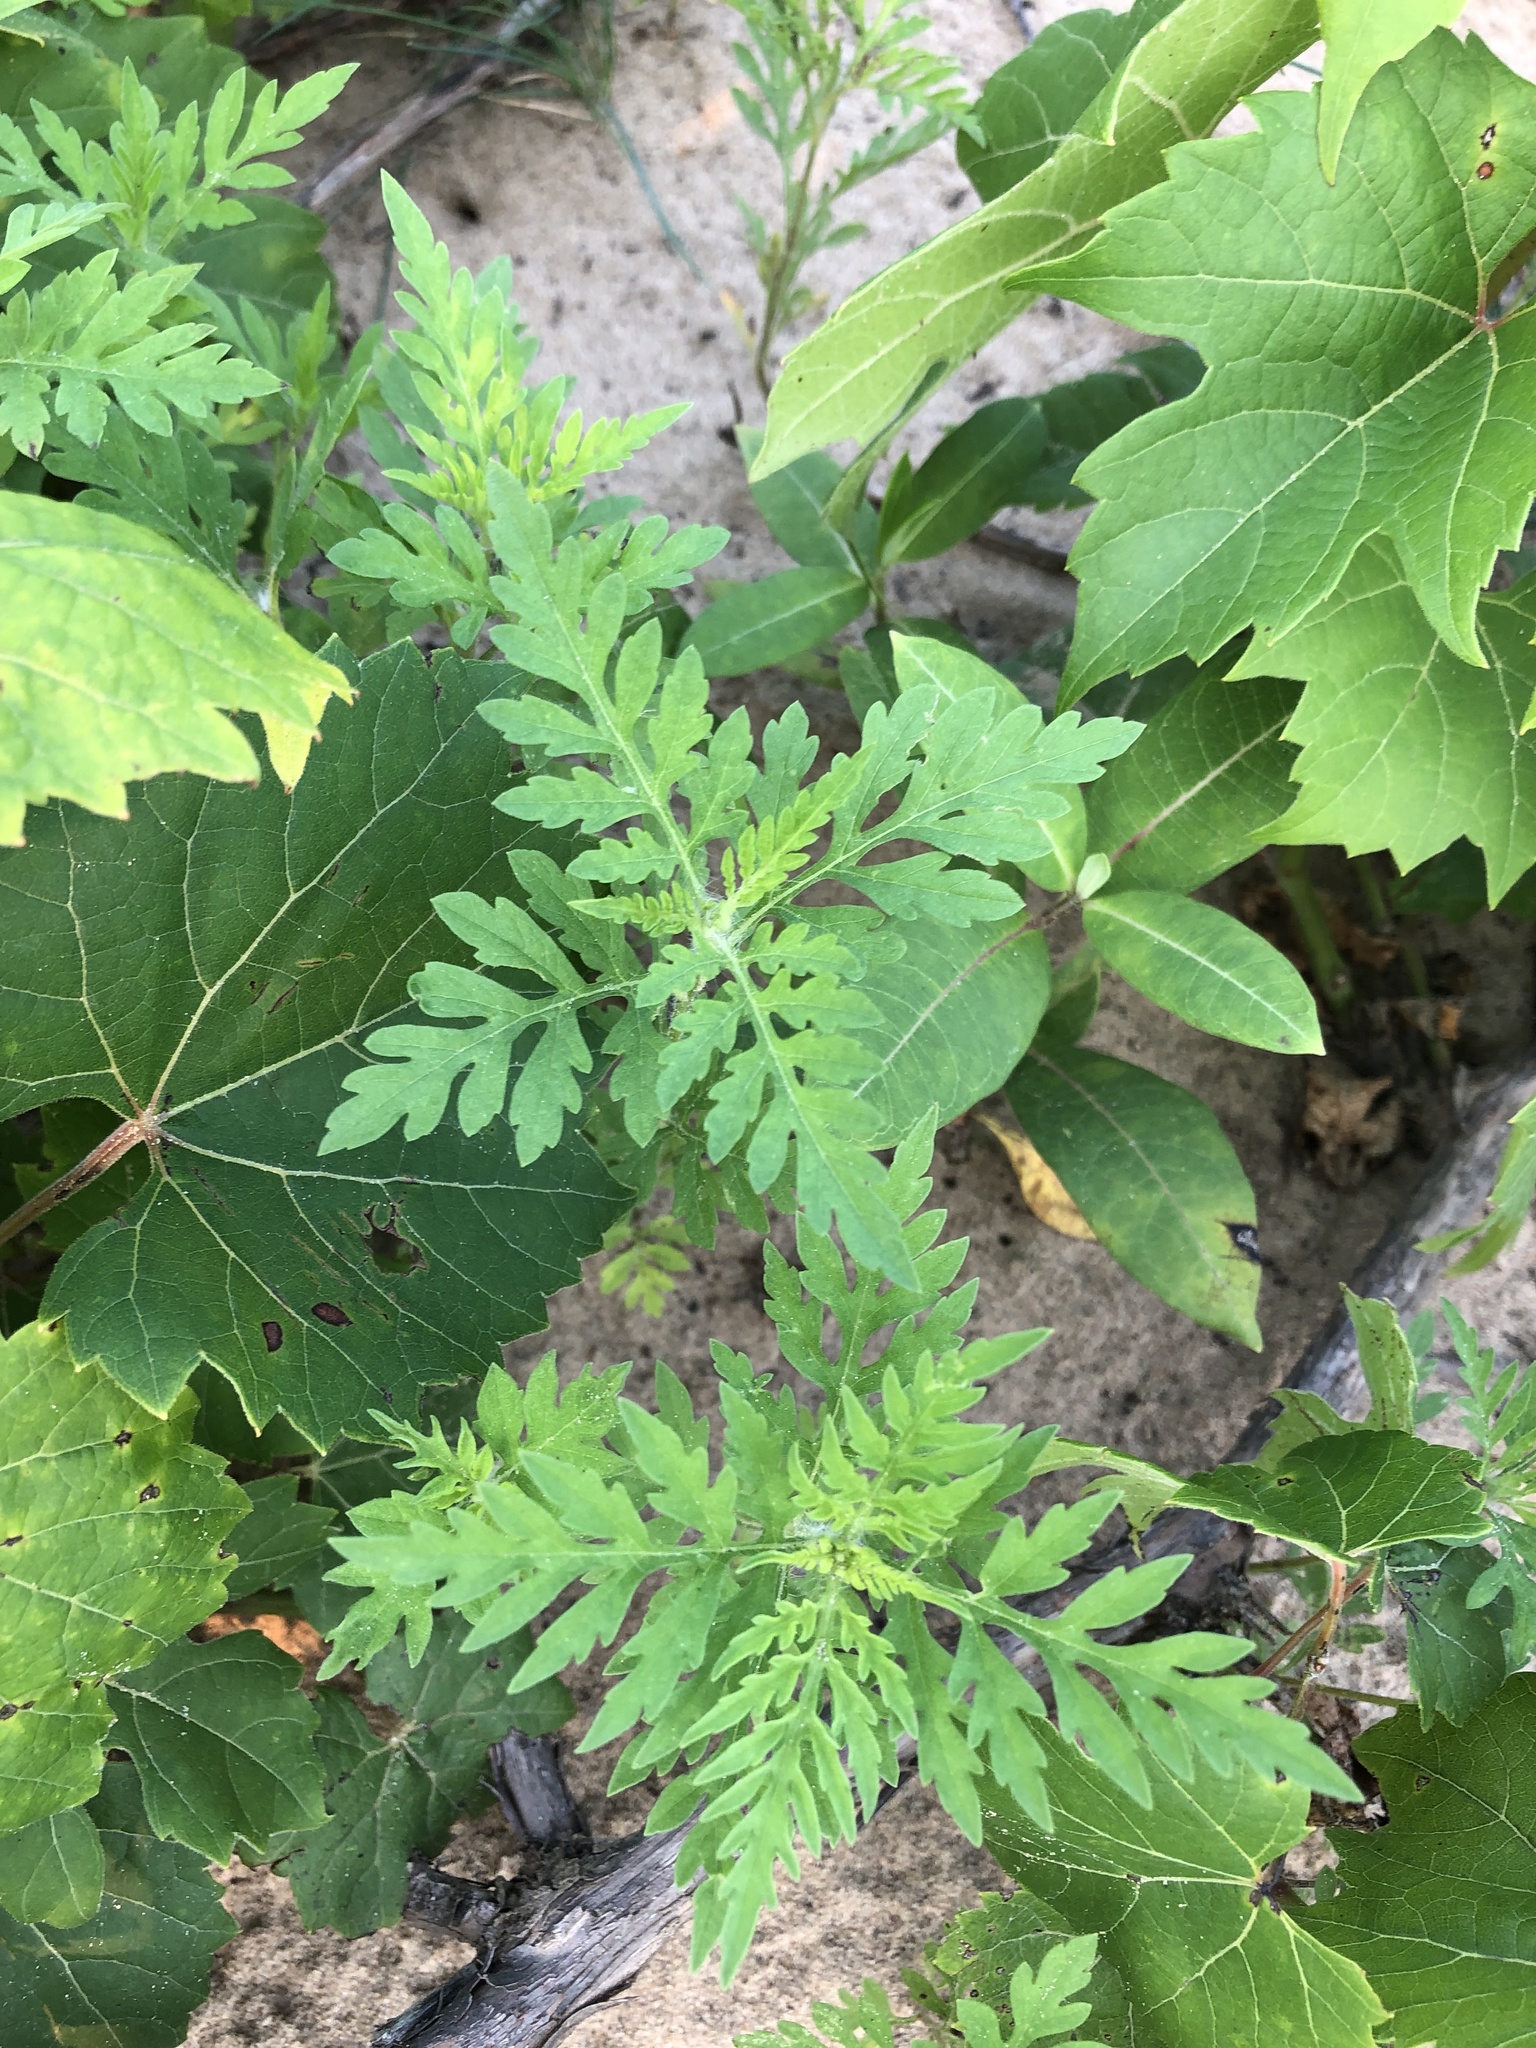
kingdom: Plantae
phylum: Tracheophyta
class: Magnoliopsida
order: Asterales
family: Asteraceae
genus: Ambrosia
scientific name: Ambrosia artemisiifolia
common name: Annual ragweed
